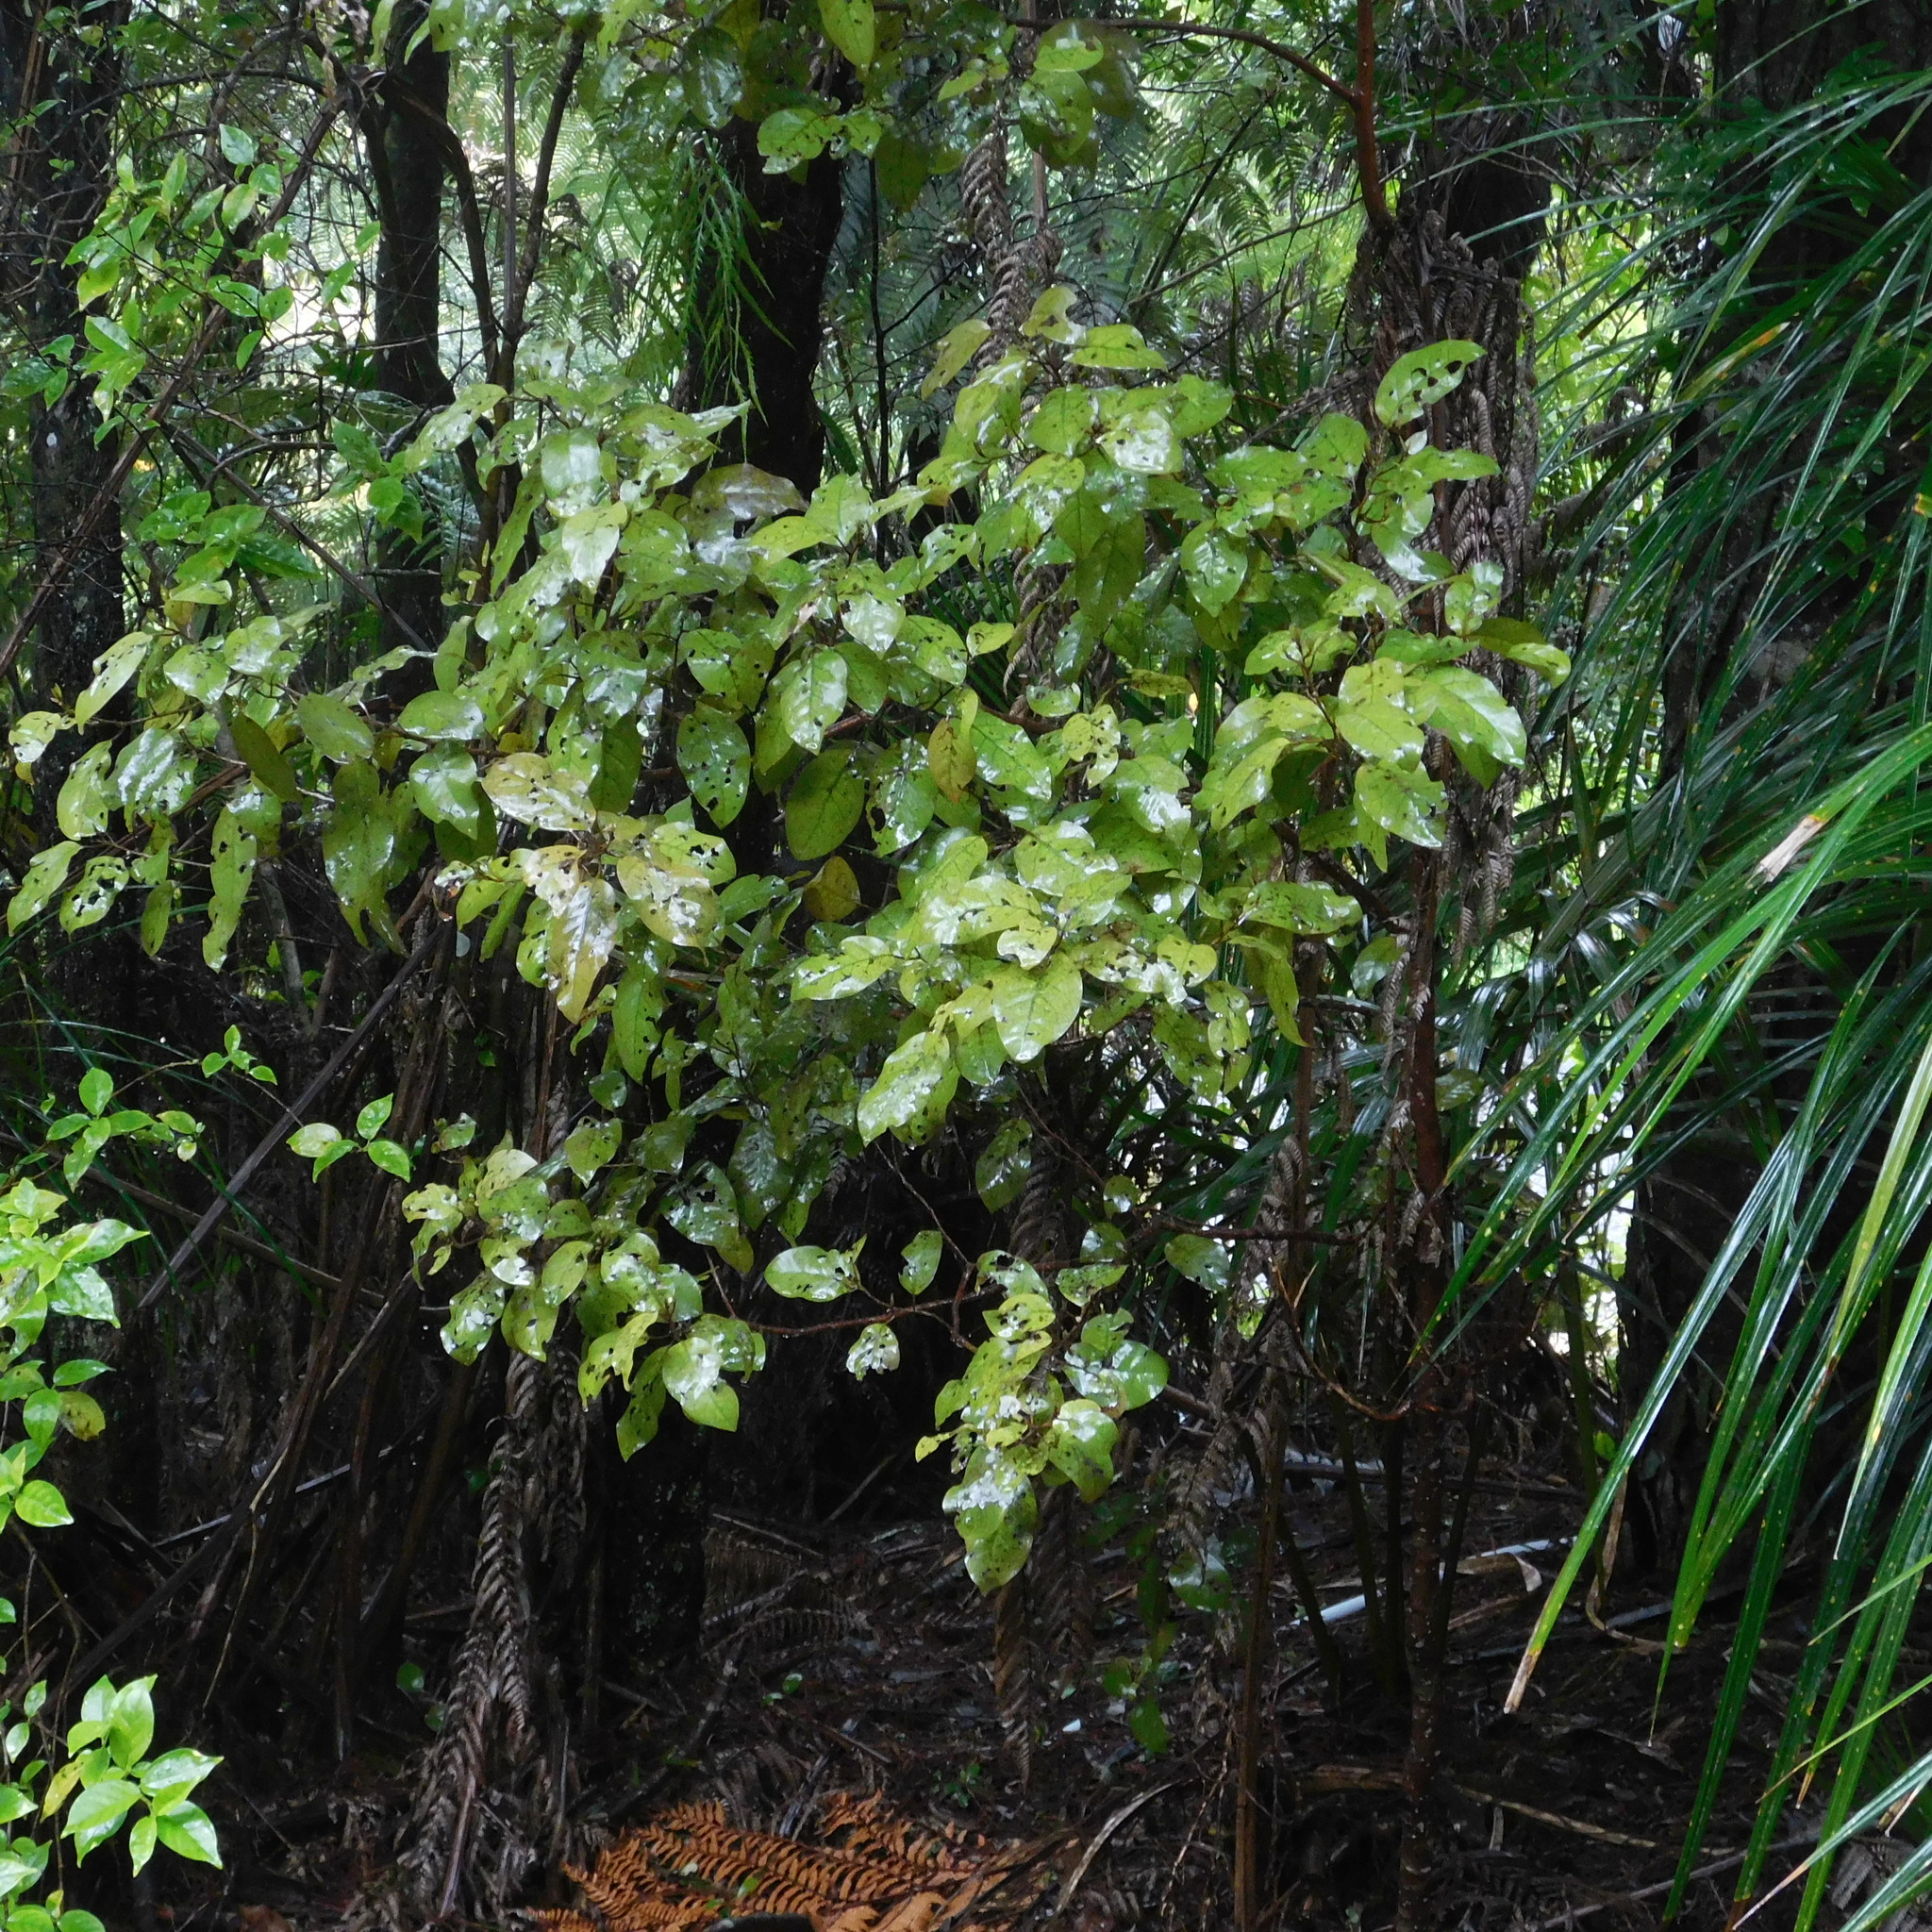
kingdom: Plantae
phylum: Tracheophyta
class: Magnoliopsida
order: Laurales
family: Lauraceae
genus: Litsea
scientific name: Litsea calicaris
